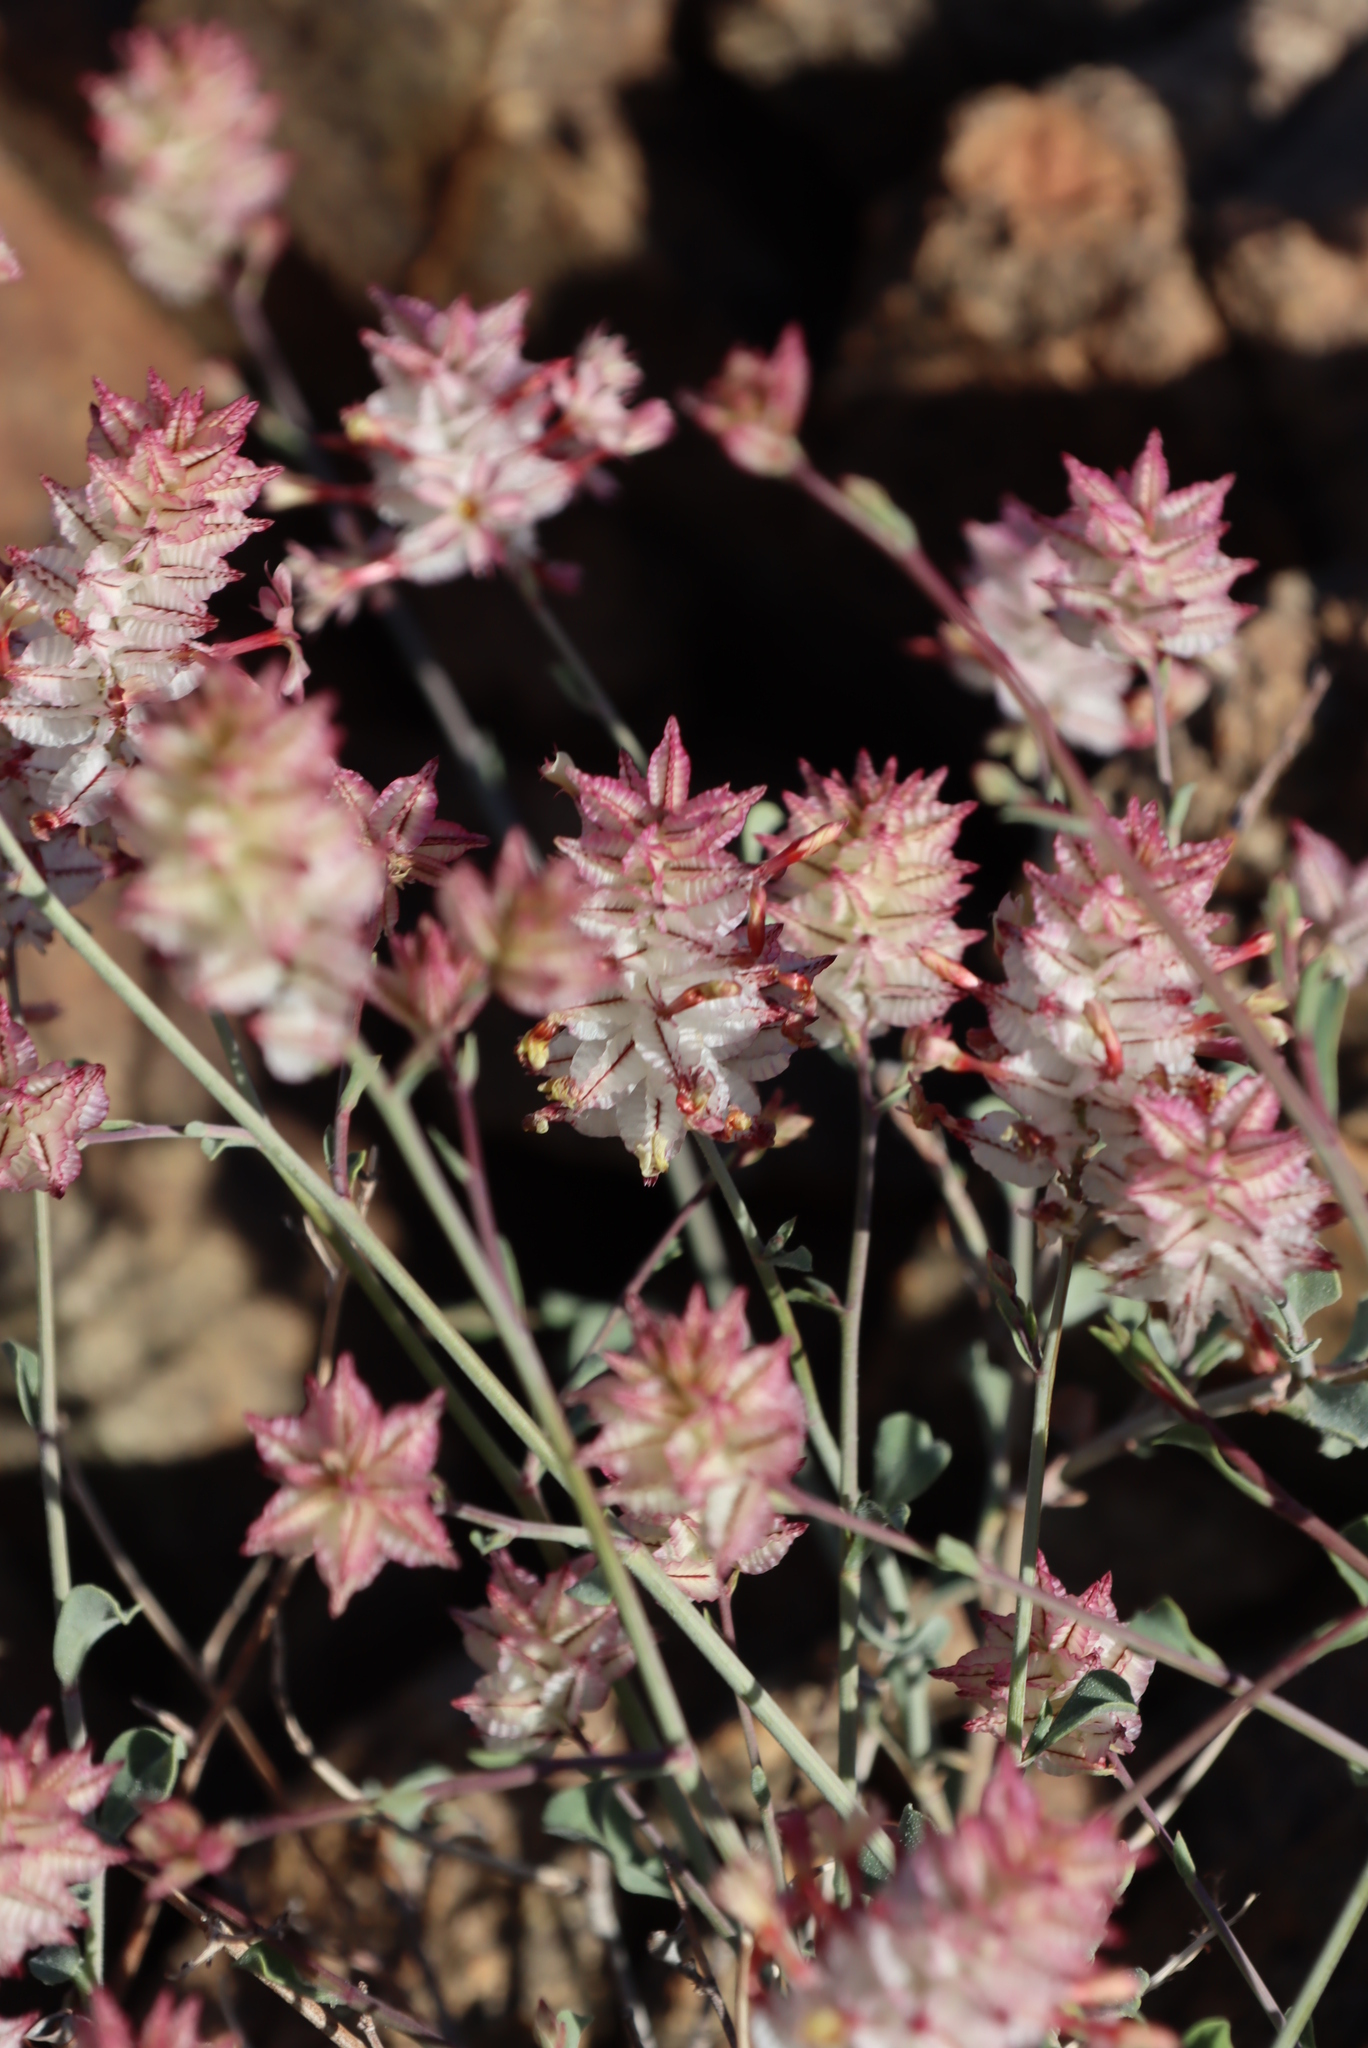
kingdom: Plantae
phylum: Tracheophyta
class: Magnoliopsida
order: Caryophyllales
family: Plumbaginaceae
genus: Dyerophytum
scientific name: Dyerophytum africanum
